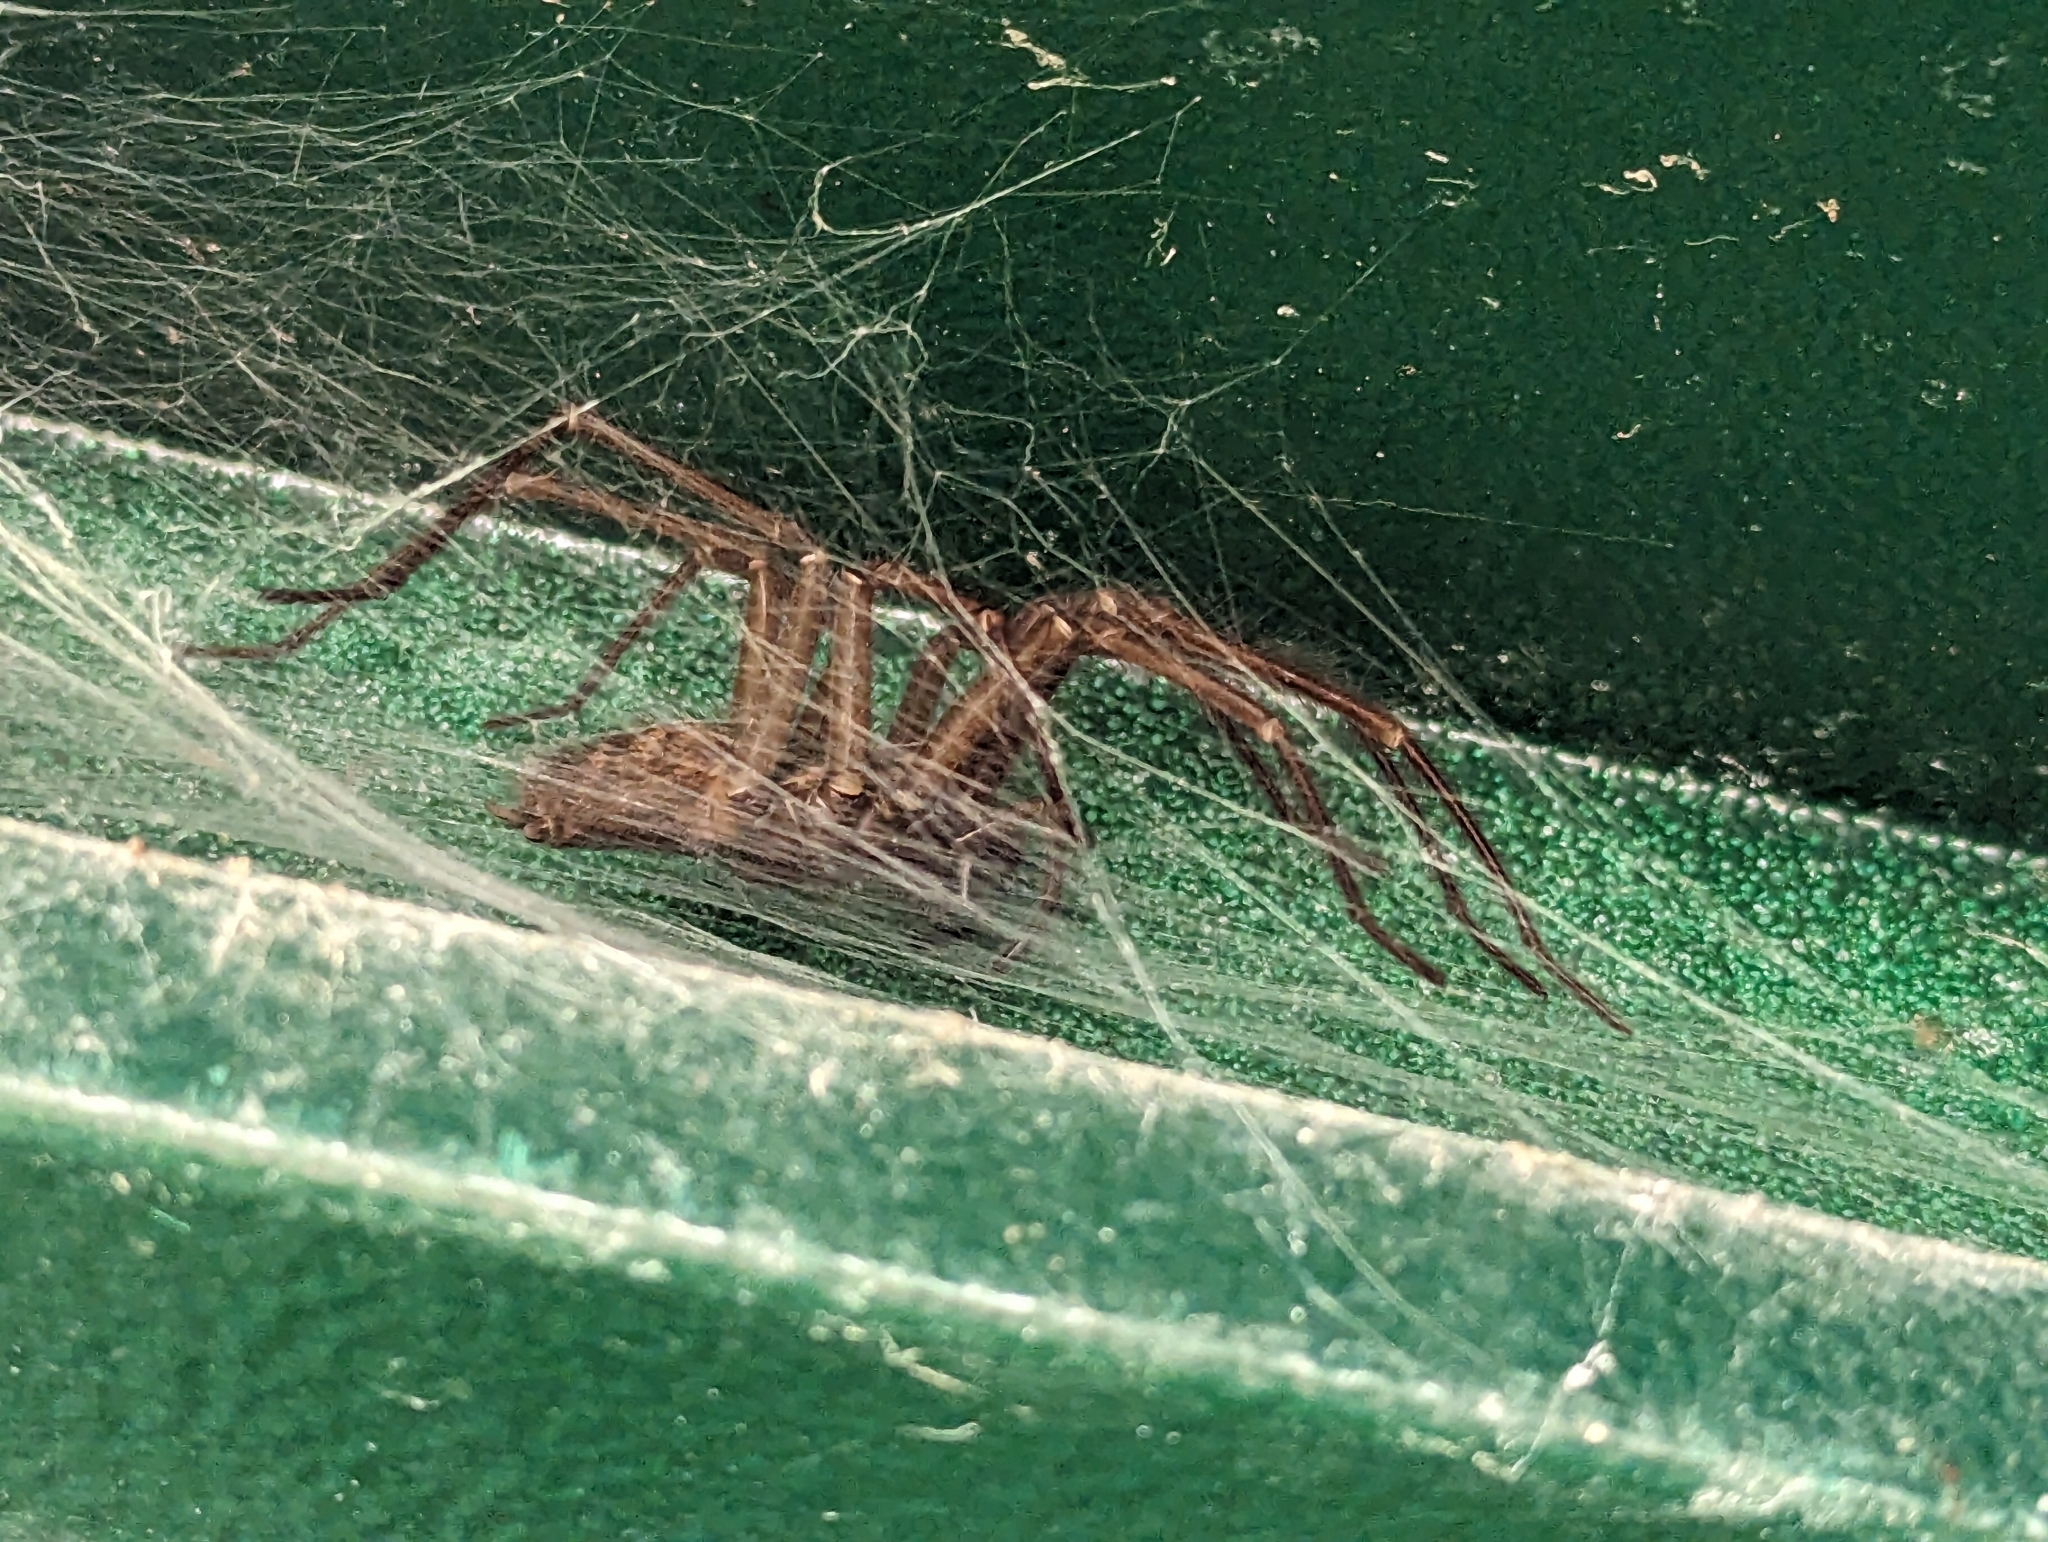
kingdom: Animalia
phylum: Arthropoda
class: Arachnida
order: Araneae
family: Agelenidae
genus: Eratigena
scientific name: Eratigena duellica
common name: Giant house spider
